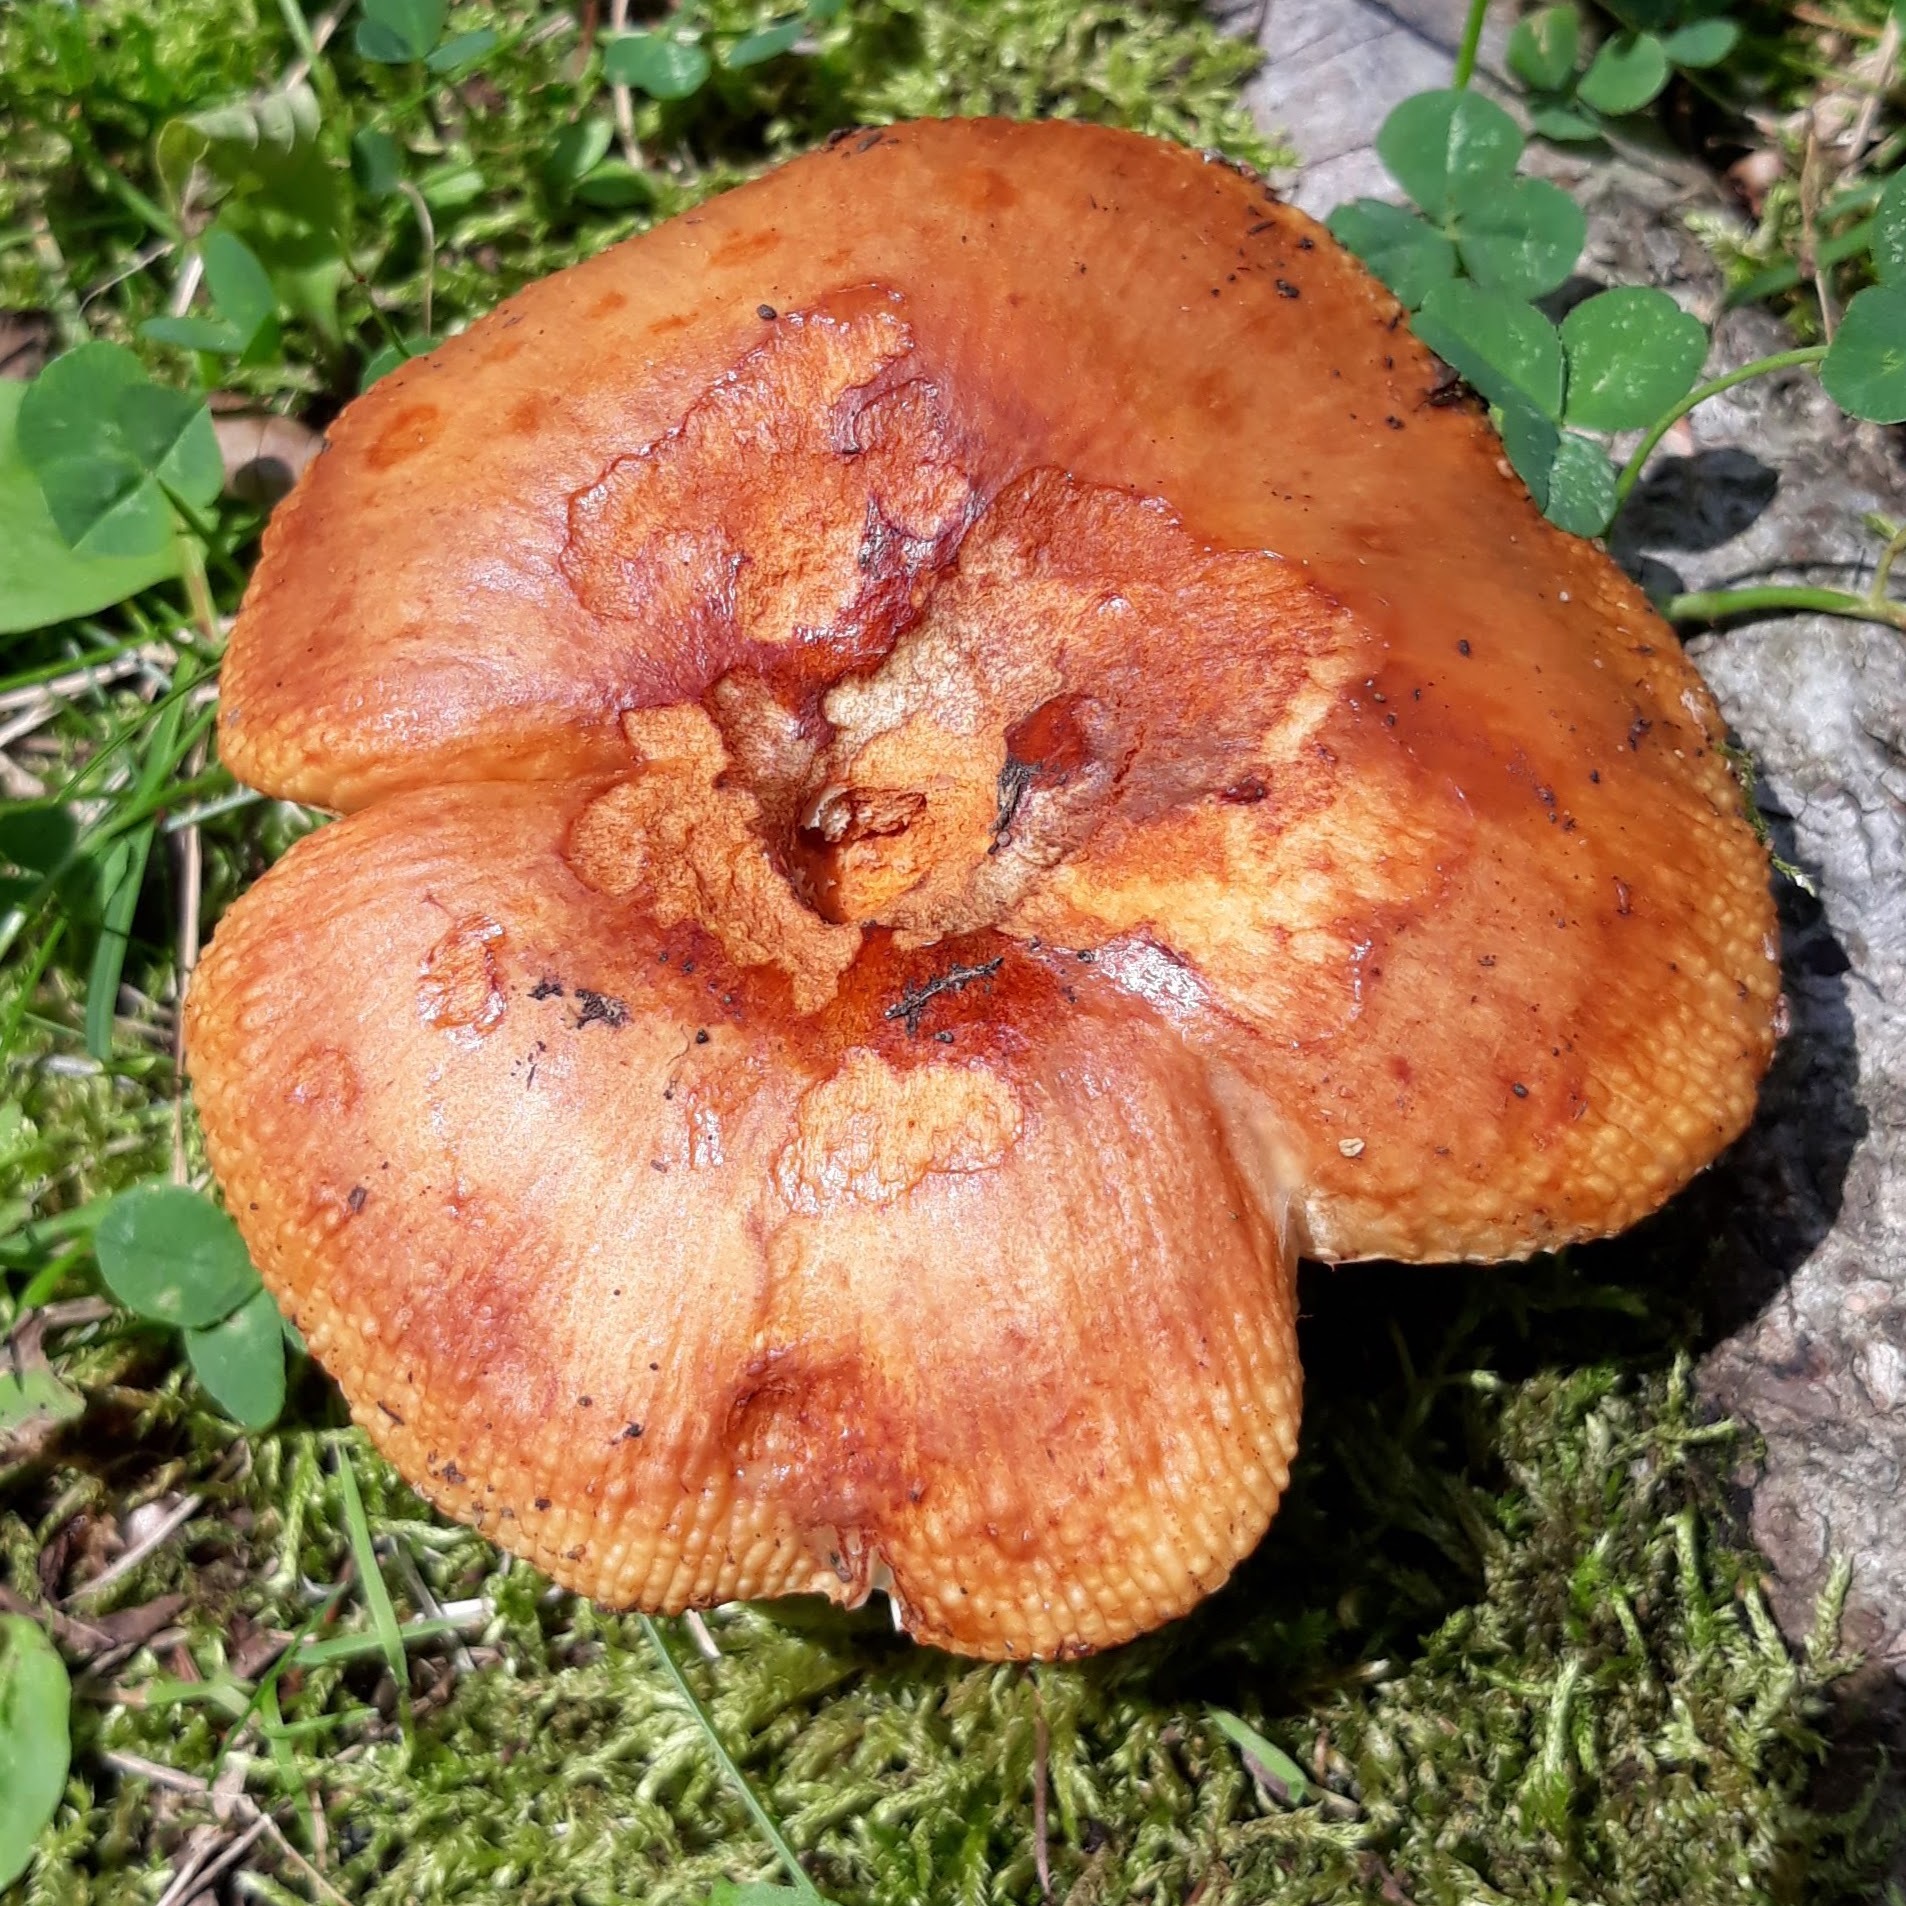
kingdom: Fungi
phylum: Basidiomycota
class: Agaricomycetes
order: Russulales
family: Russulaceae
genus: Russula
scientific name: Russula
